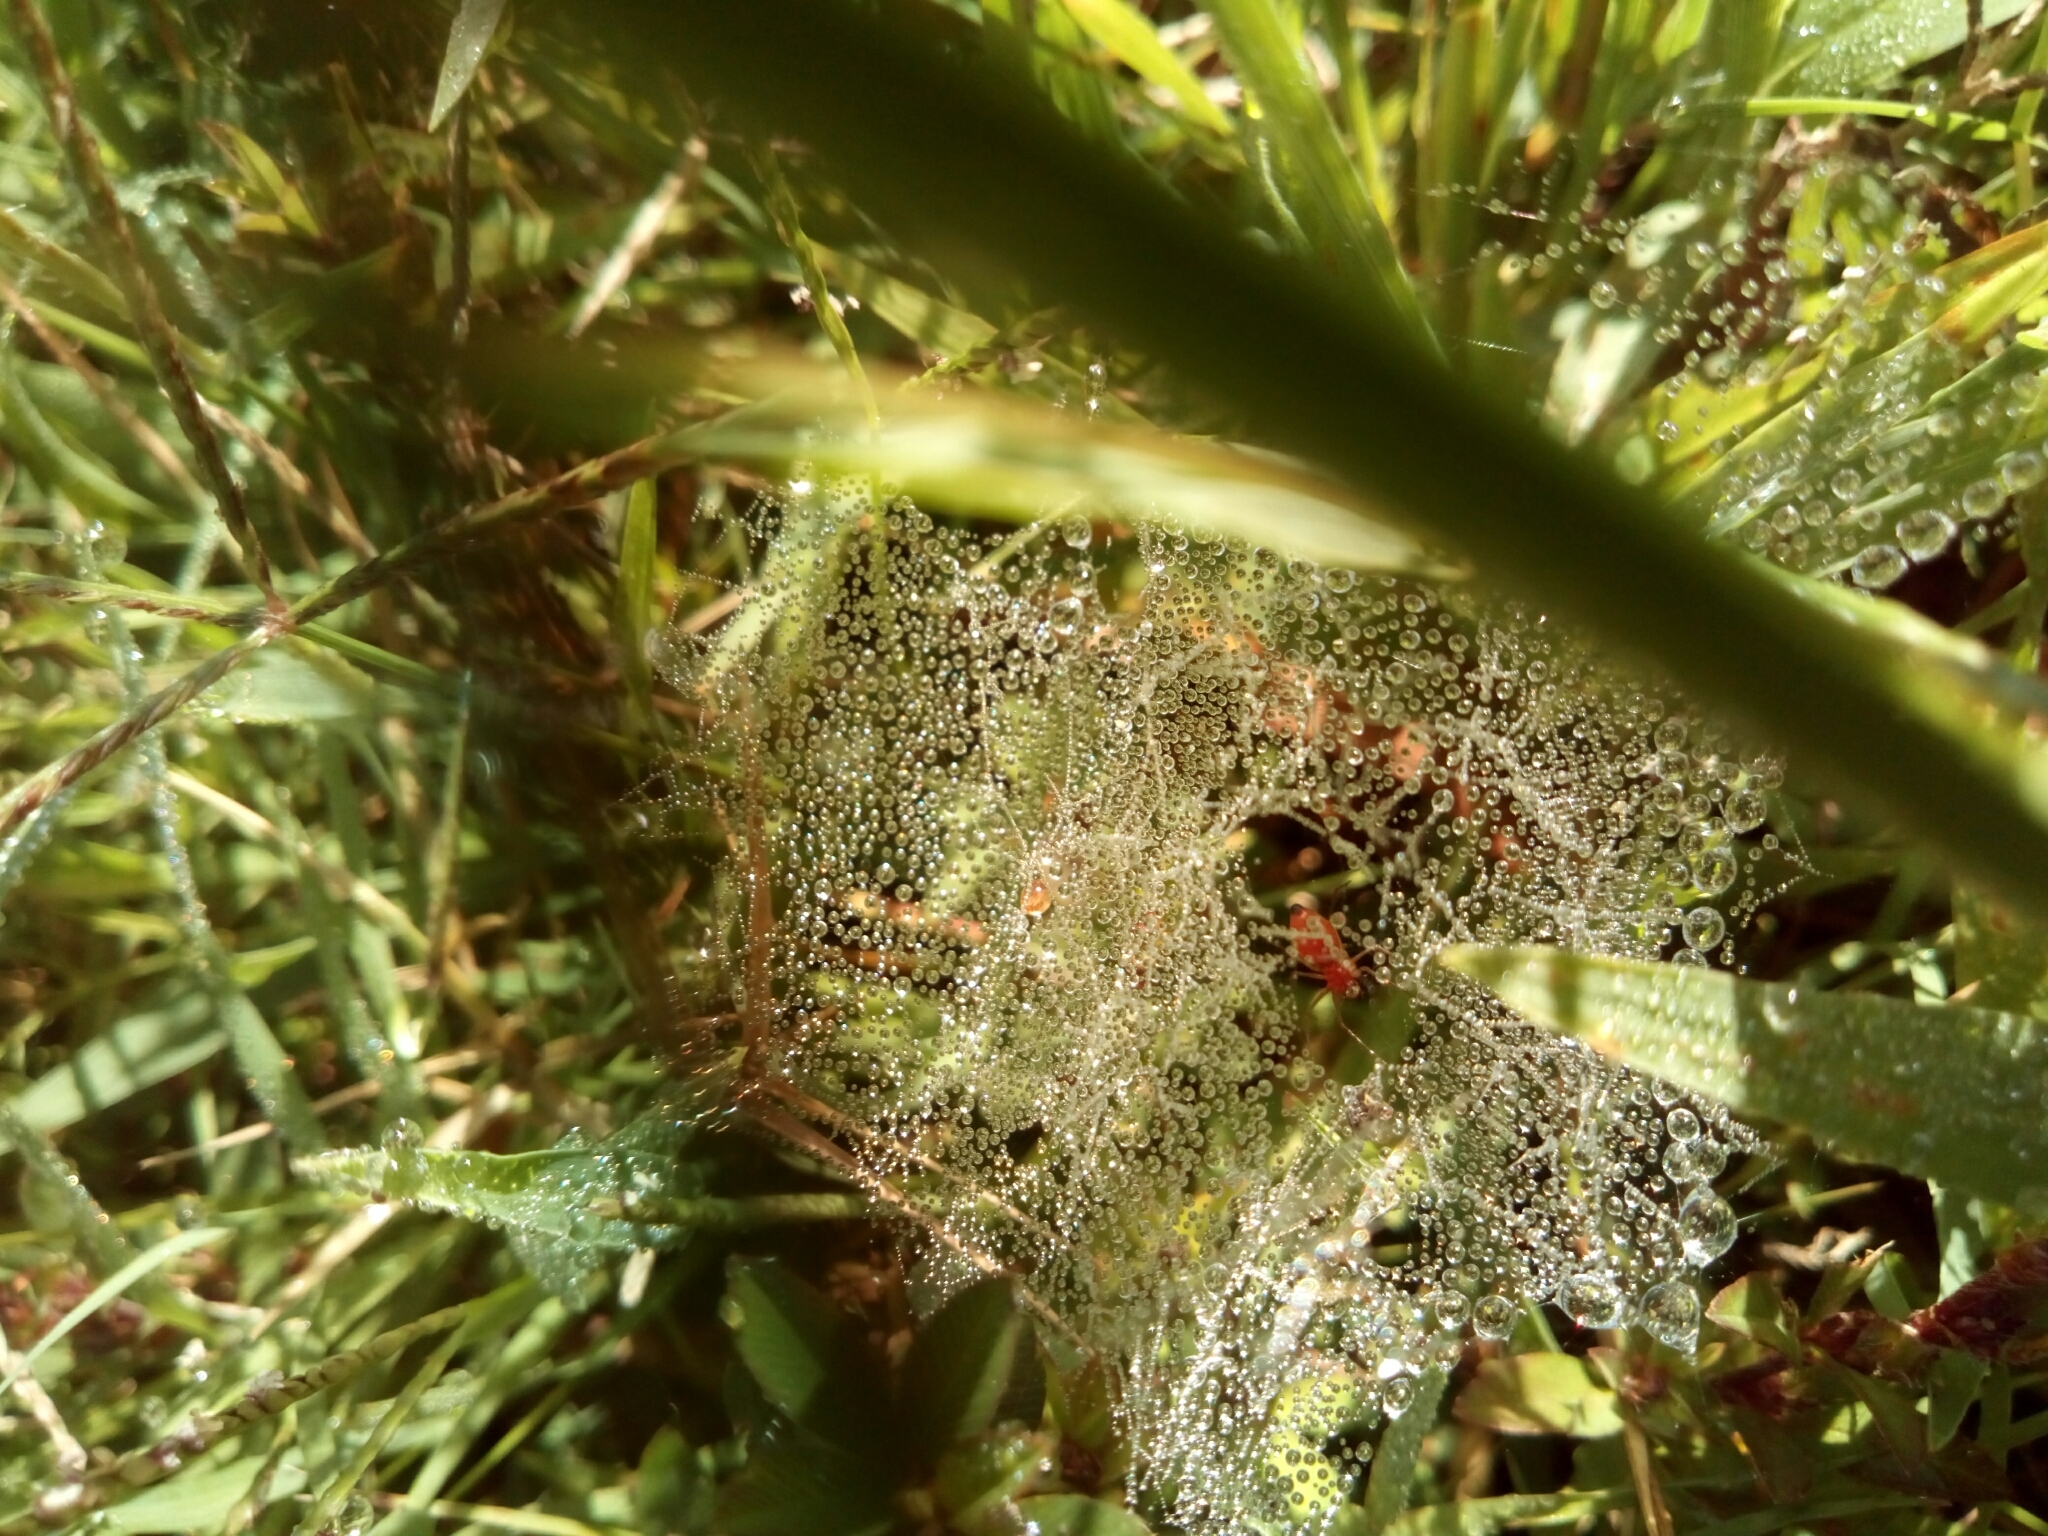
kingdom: Animalia
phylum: Arthropoda
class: Arachnida
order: Araneae
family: Linyphiidae
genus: Florinda
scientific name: Florinda coccinea
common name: Black-tailed red sheetweaver
